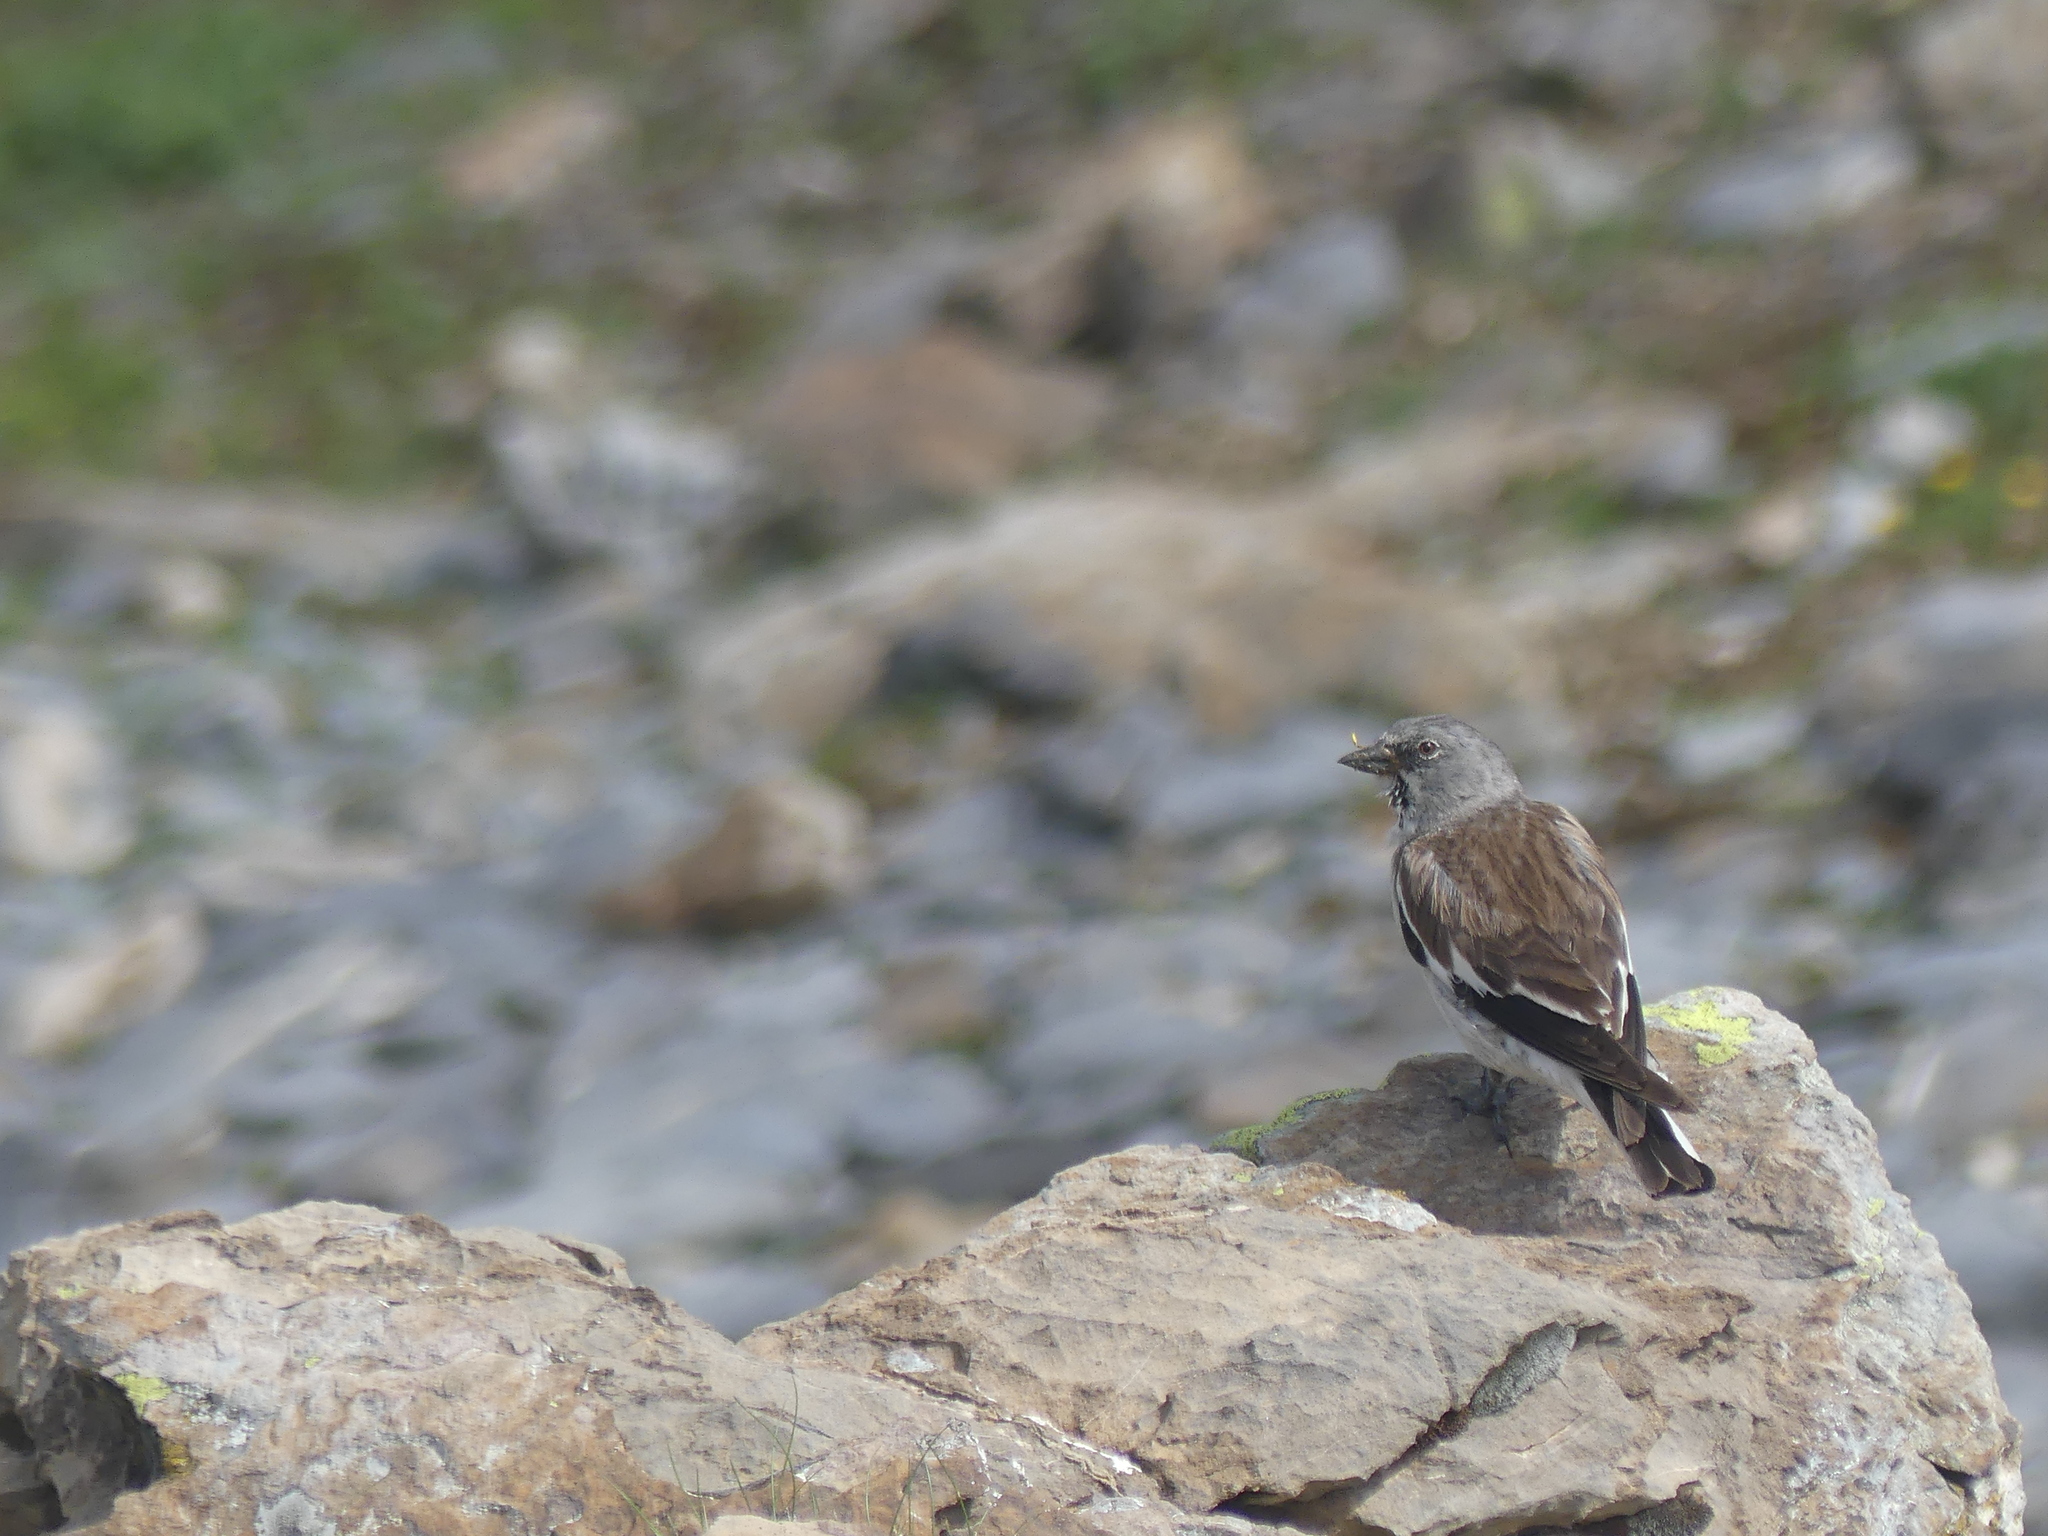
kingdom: Animalia
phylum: Chordata
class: Aves
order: Passeriformes
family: Passeridae
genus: Montifringilla
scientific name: Montifringilla nivalis
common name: White-winged snowfinch
